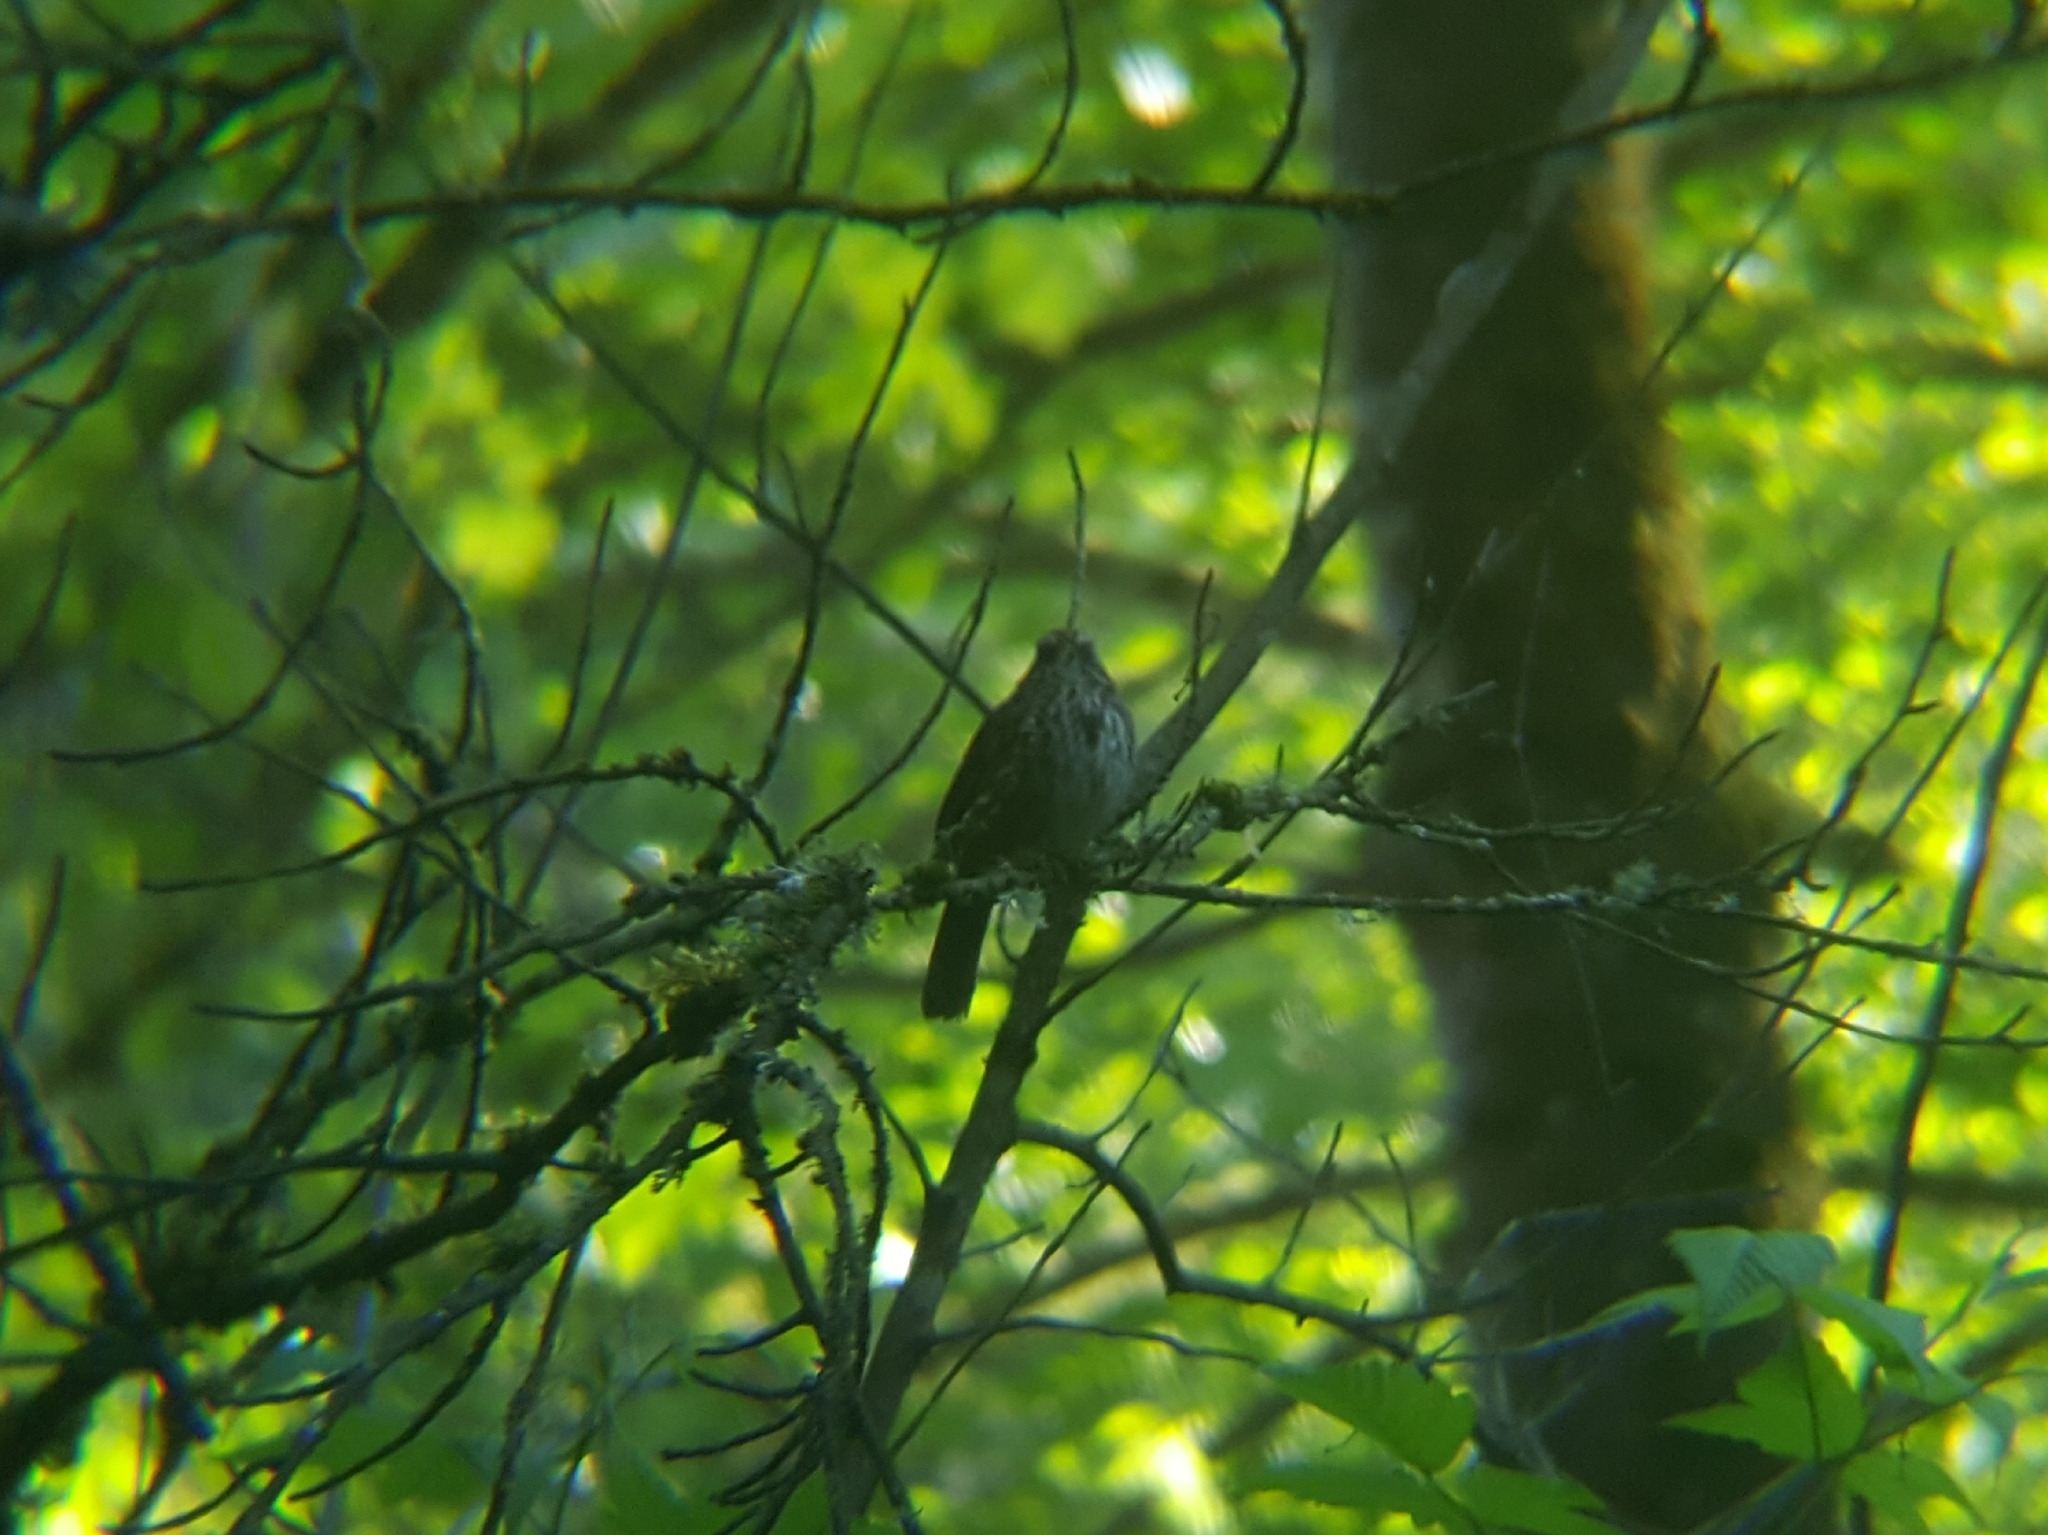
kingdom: Animalia
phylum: Chordata
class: Aves
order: Passeriformes
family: Passerellidae
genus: Melospiza
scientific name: Melospiza melodia
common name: Song sparrow
